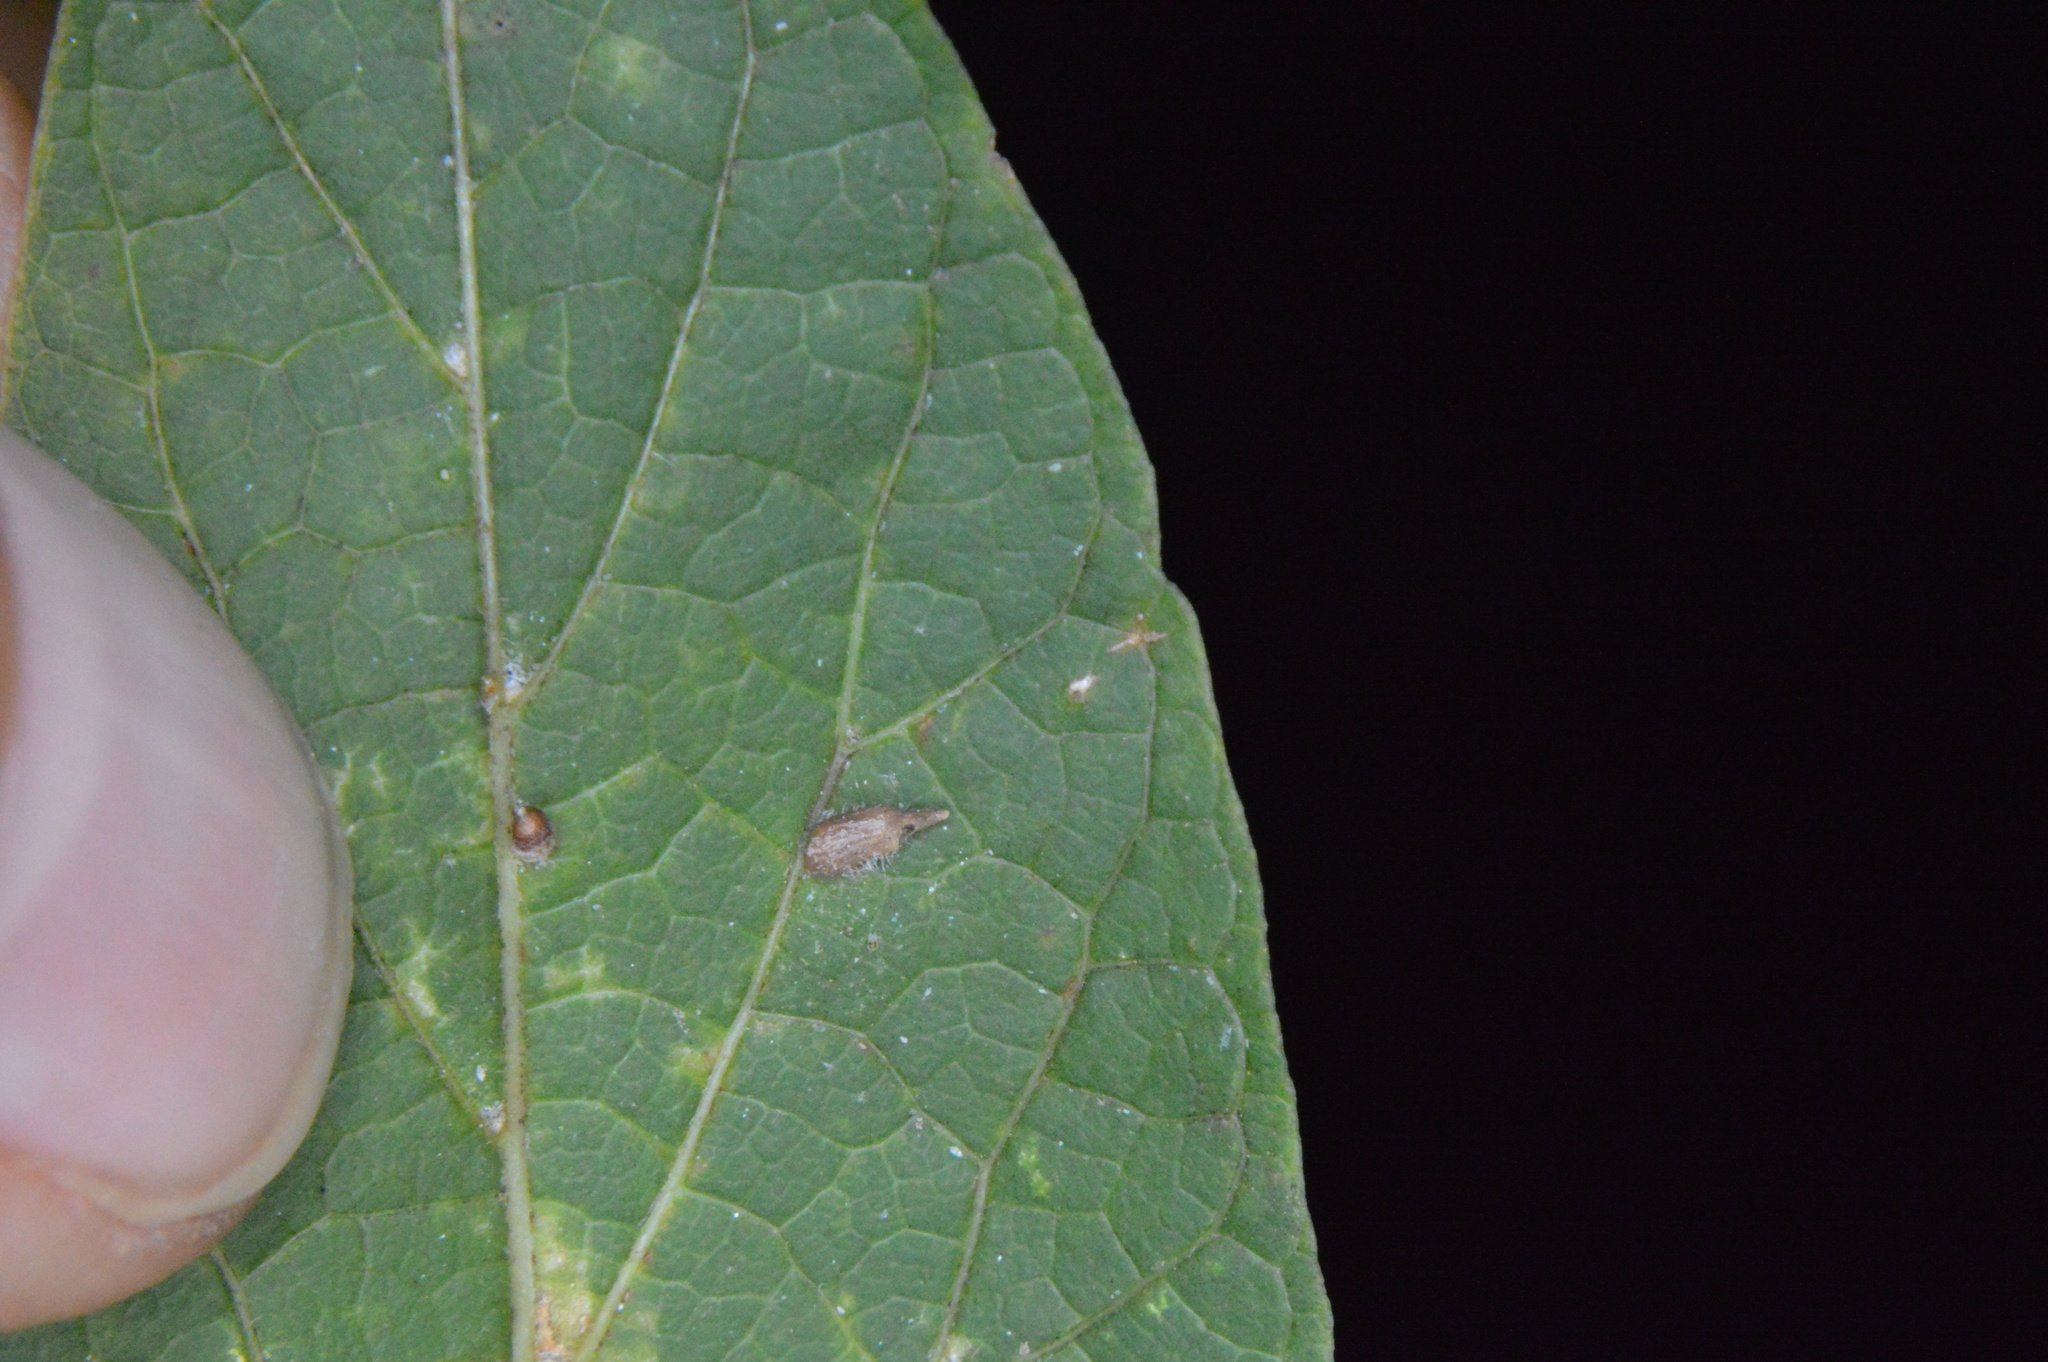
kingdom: Animalia
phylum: Arthropoda
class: Insecta
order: Diptera
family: Cecidomyiidae
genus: Celticecis
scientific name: Celticecis supina
